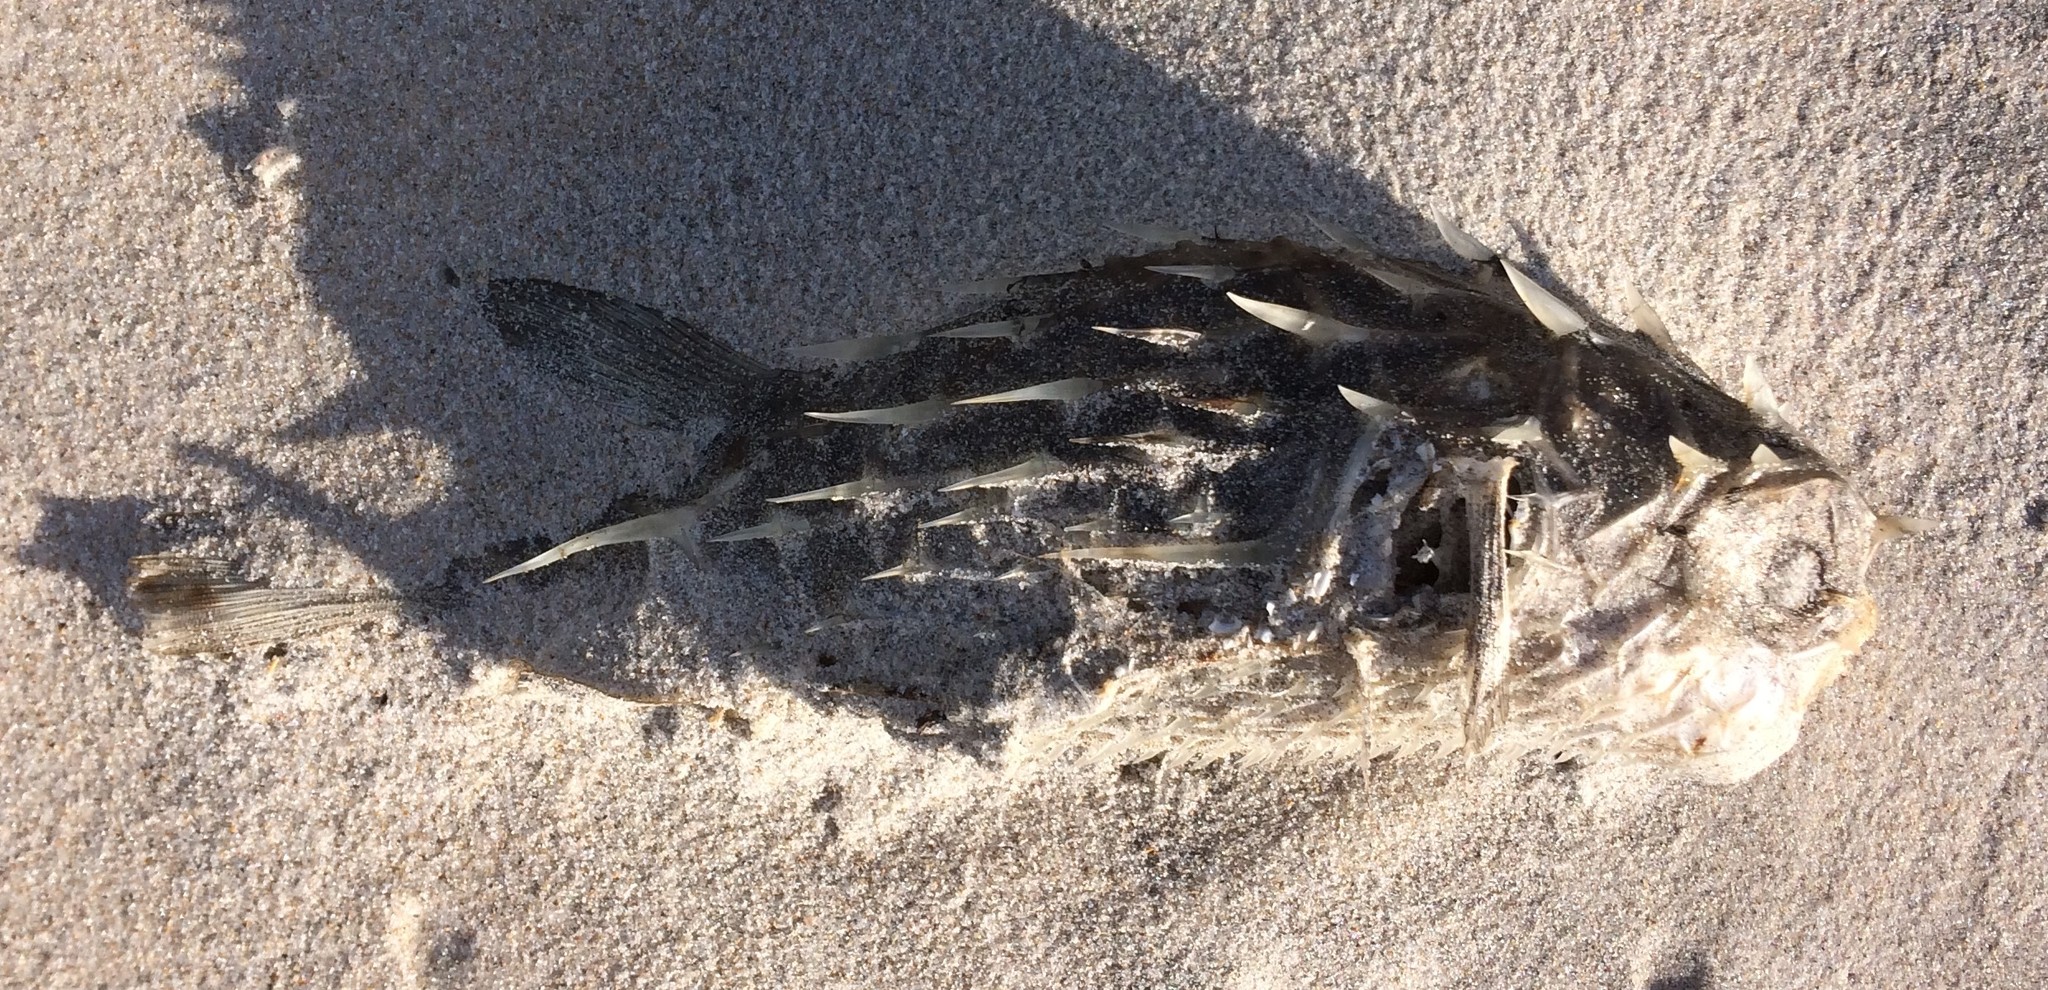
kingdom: Animalia
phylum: Chordata
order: Tetraodontiformes
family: Diodontidae
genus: Allomycterus
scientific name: Allomycterus pilatus
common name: No common name
